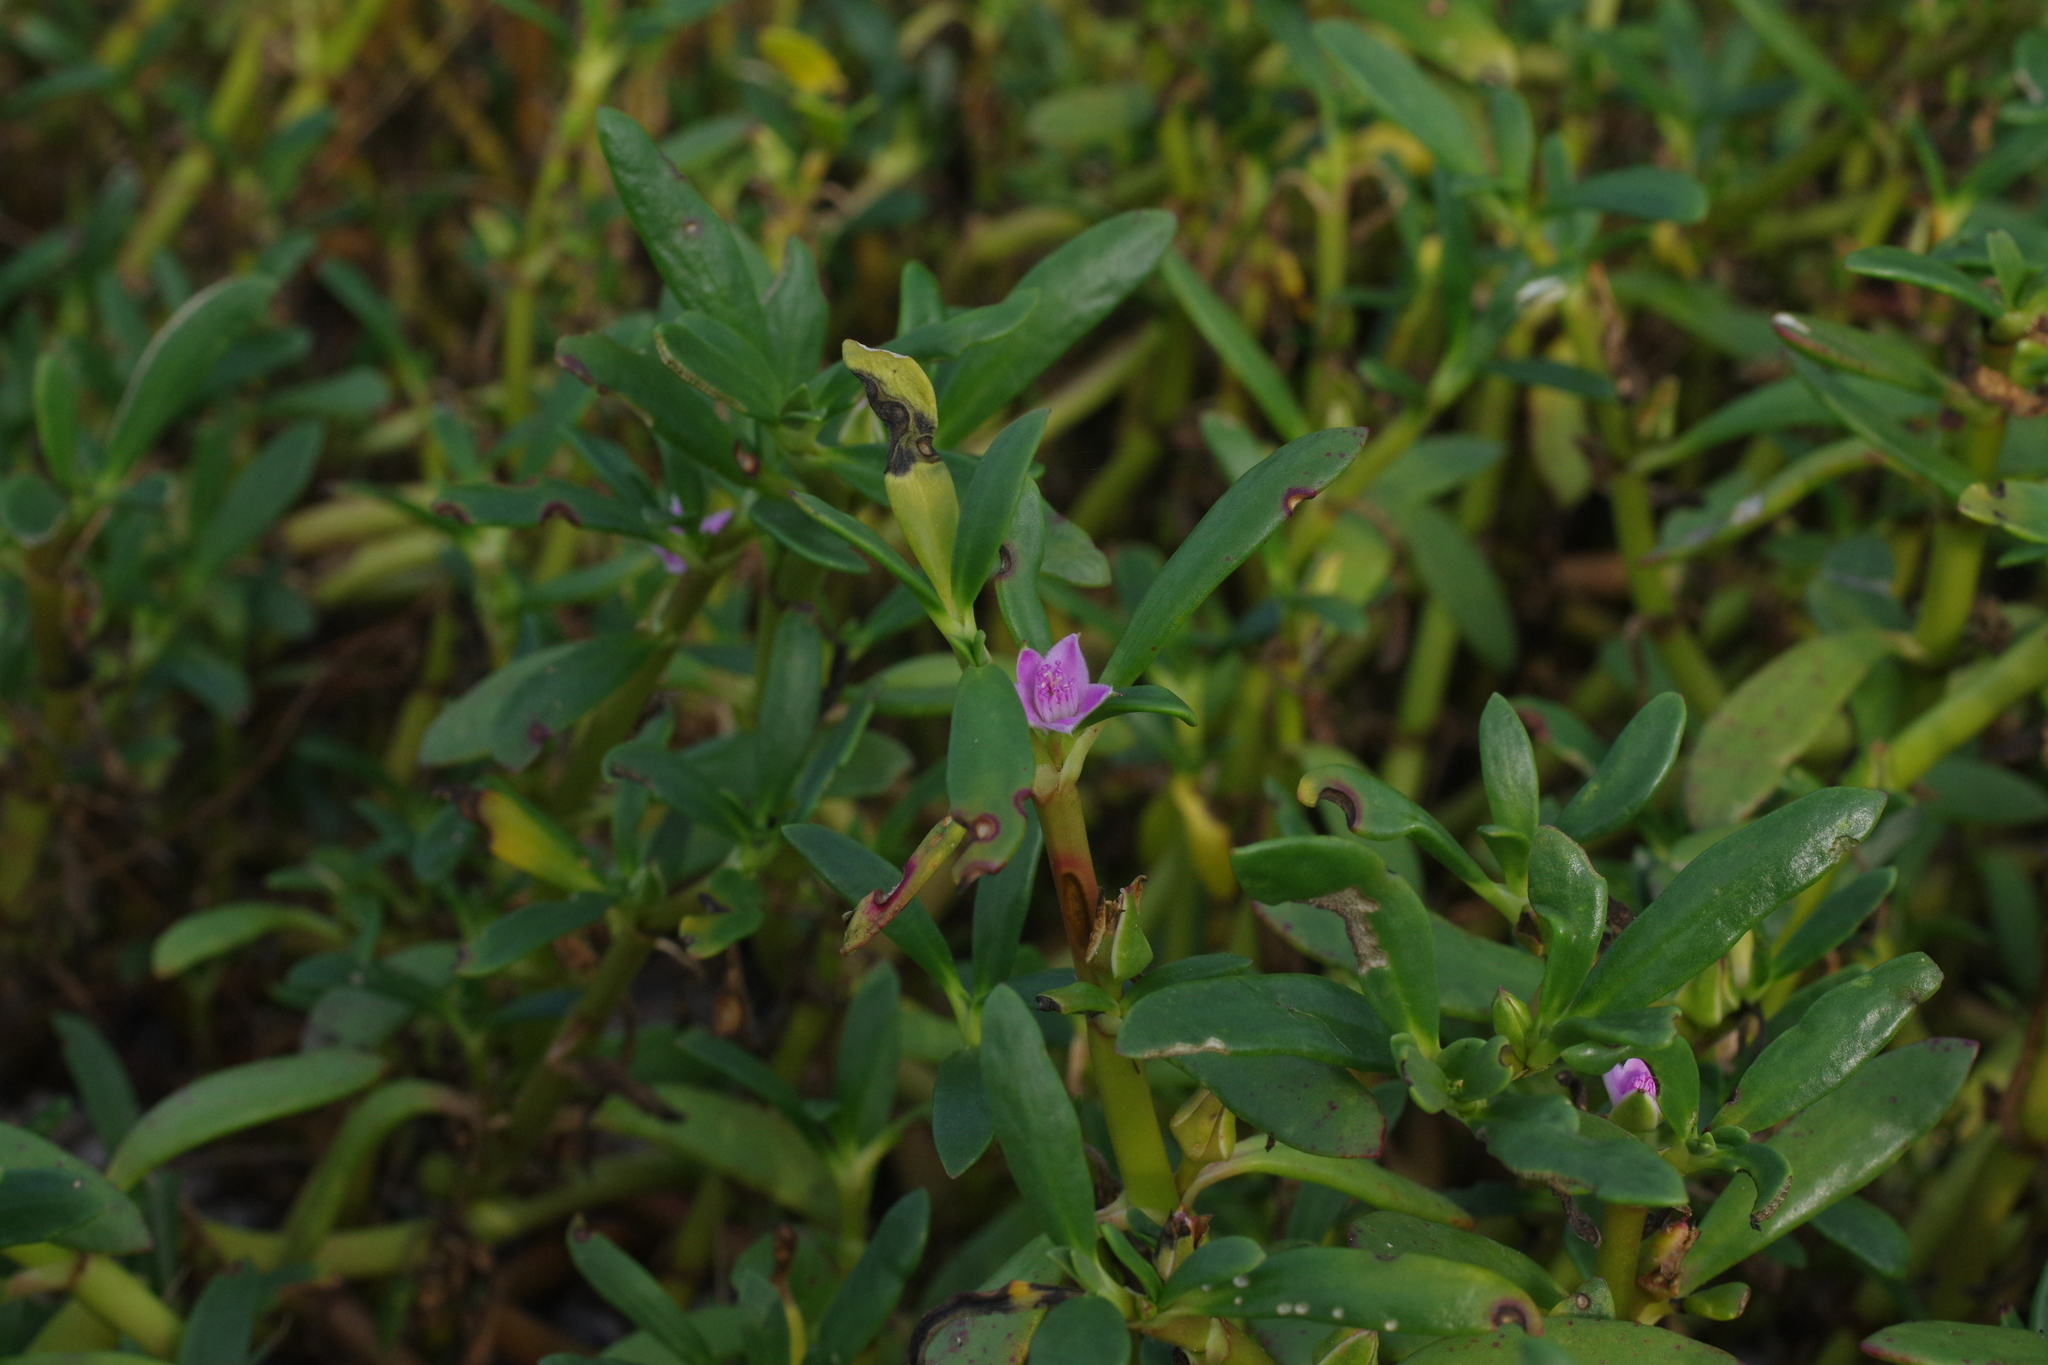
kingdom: Plantae
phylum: Tracheophyta
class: Magnoliopsida
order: Caryophyllales
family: Aizoaceae
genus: Sesuvium
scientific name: Sesuvium portulacastrum
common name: Sea-purslane
